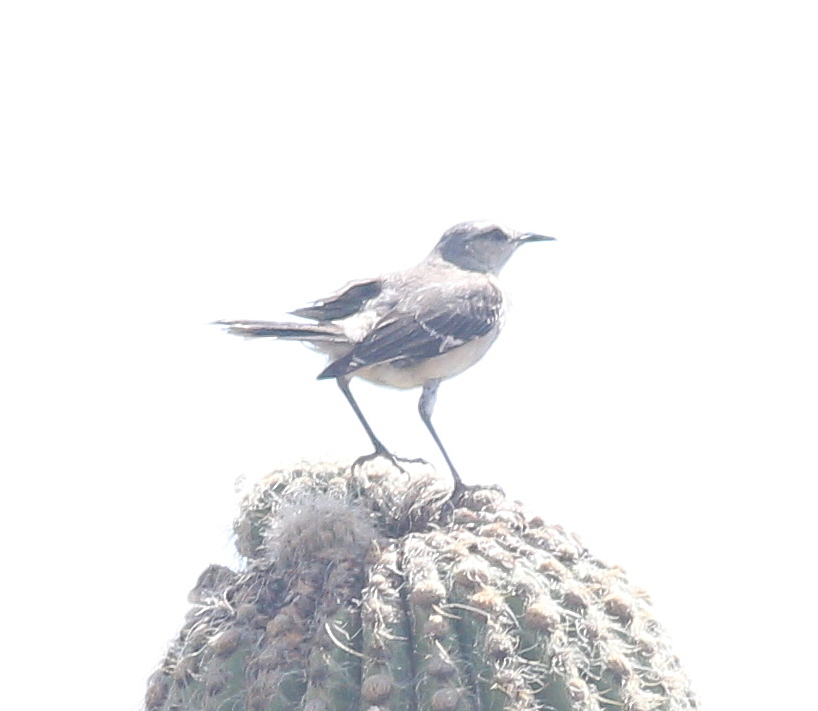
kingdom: Animalia
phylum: Chordata
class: Aves
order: Passeriformes
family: Mimidae
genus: Mimus
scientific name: Mimus patagonicus
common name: Patagonian mockingbird
